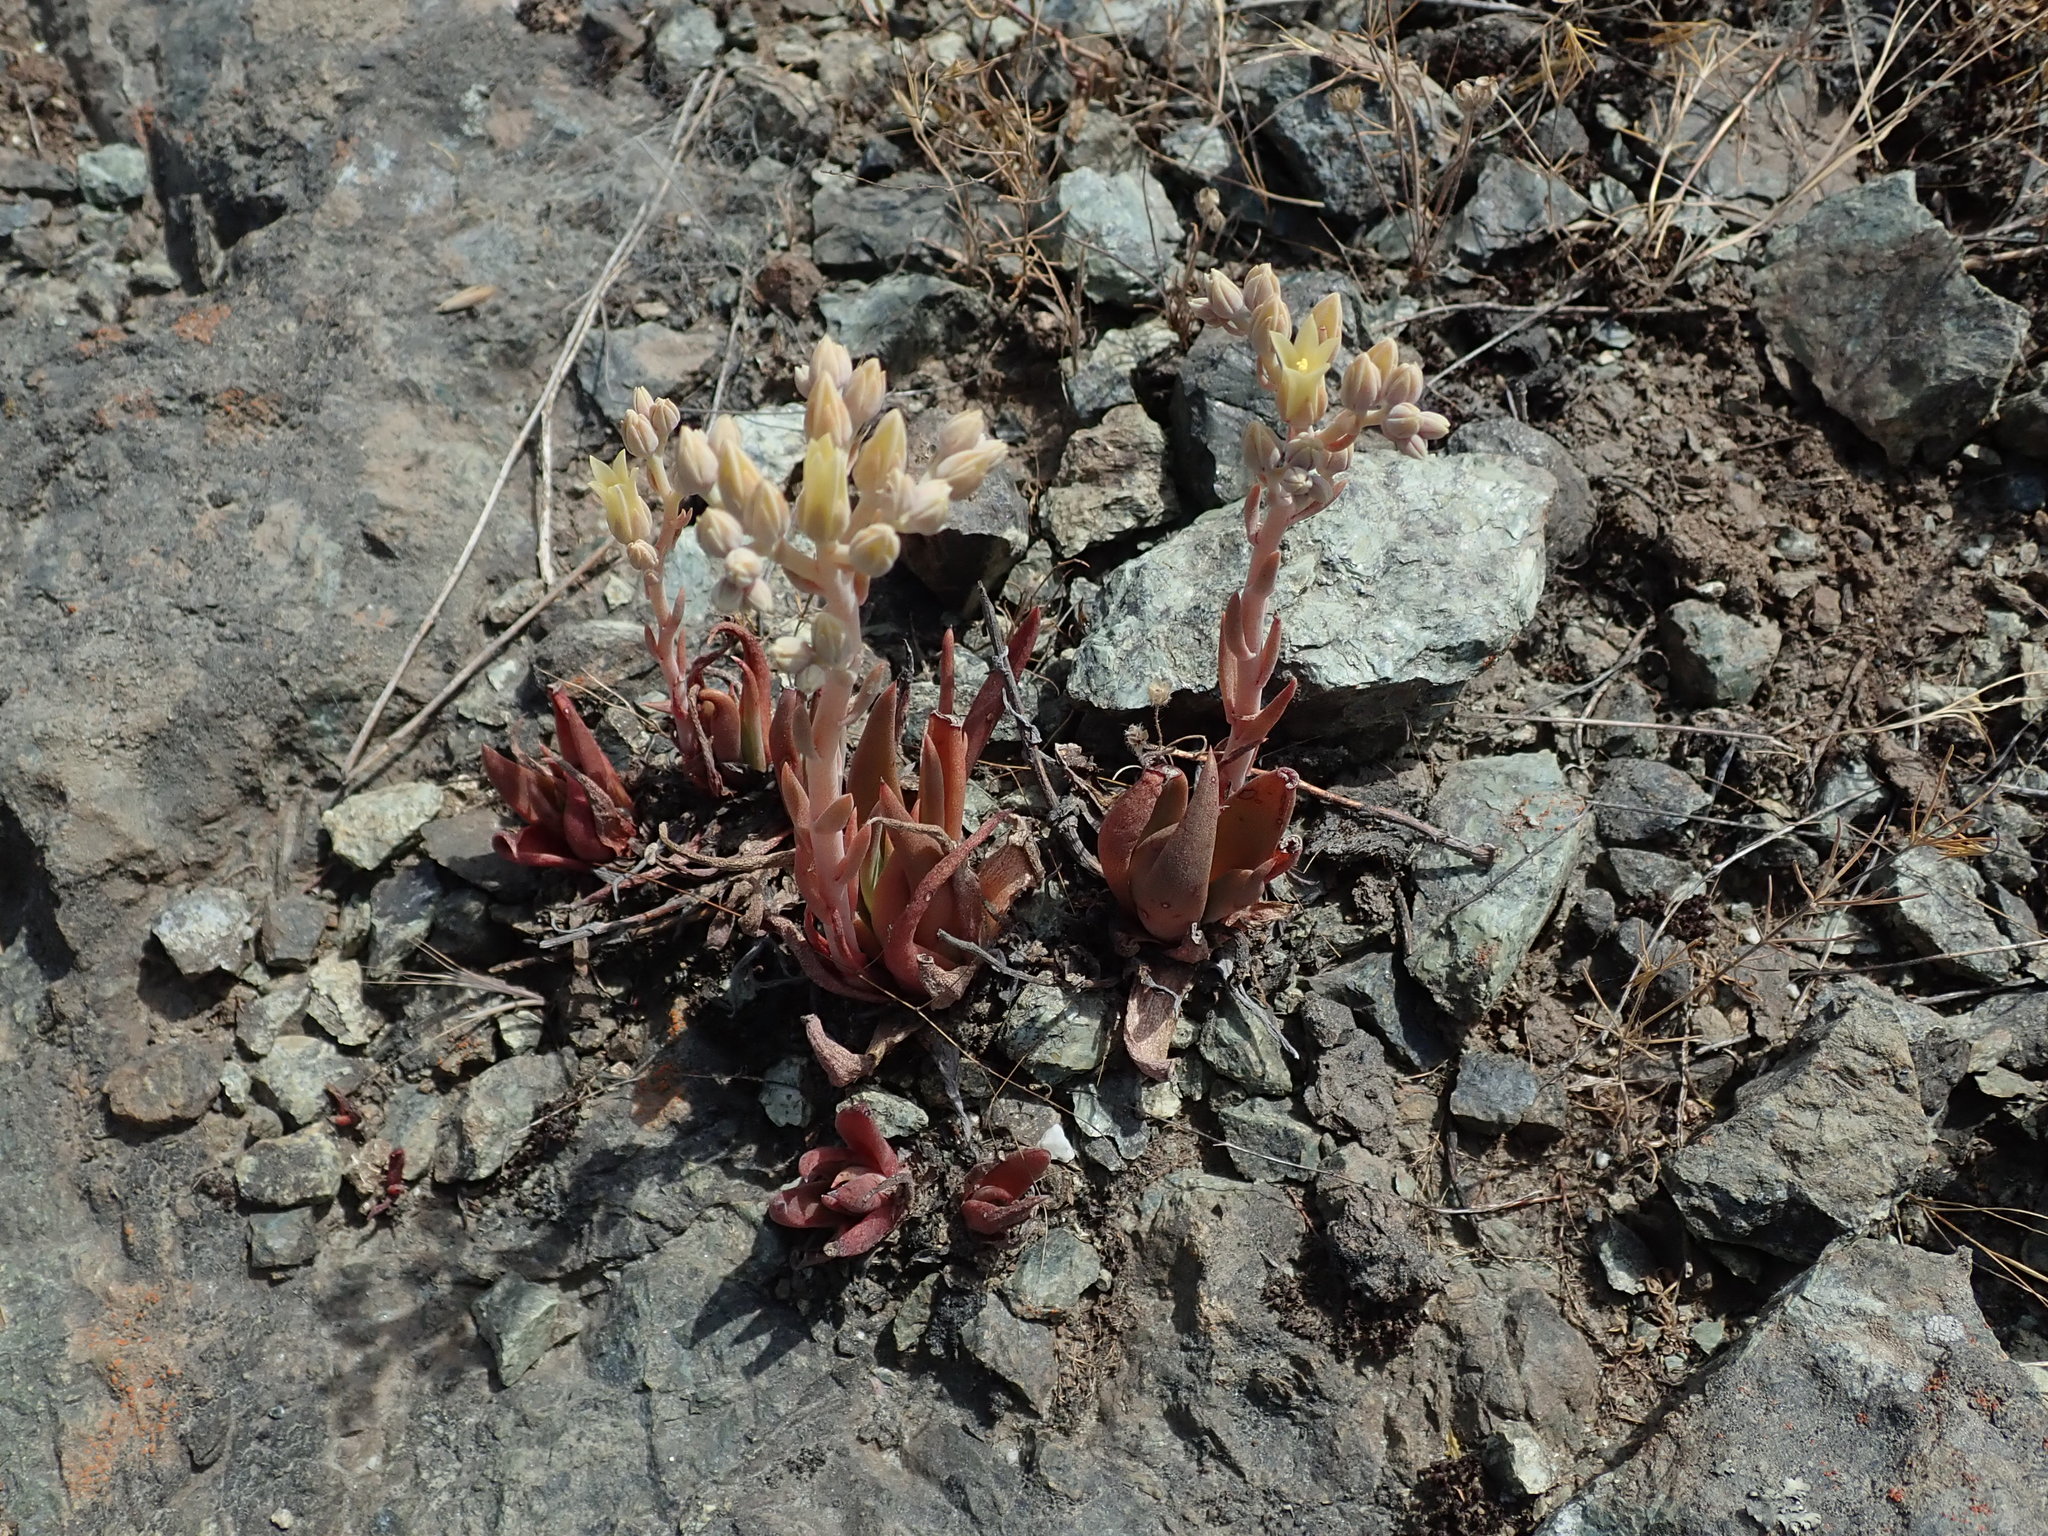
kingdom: Plantae
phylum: Tracheophyta
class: Magnoliopsida
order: Saxifragales
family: Crassulaceae
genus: Dudleya
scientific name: Dudleya abramsii
